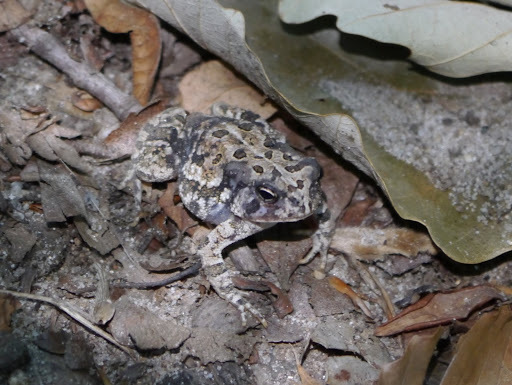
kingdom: Animalia
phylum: Chordata
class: Amphibia
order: Anura
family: Bufonidae
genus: Anaxyrus
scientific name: Anaxyrus fowleri
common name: Fowler's toad
